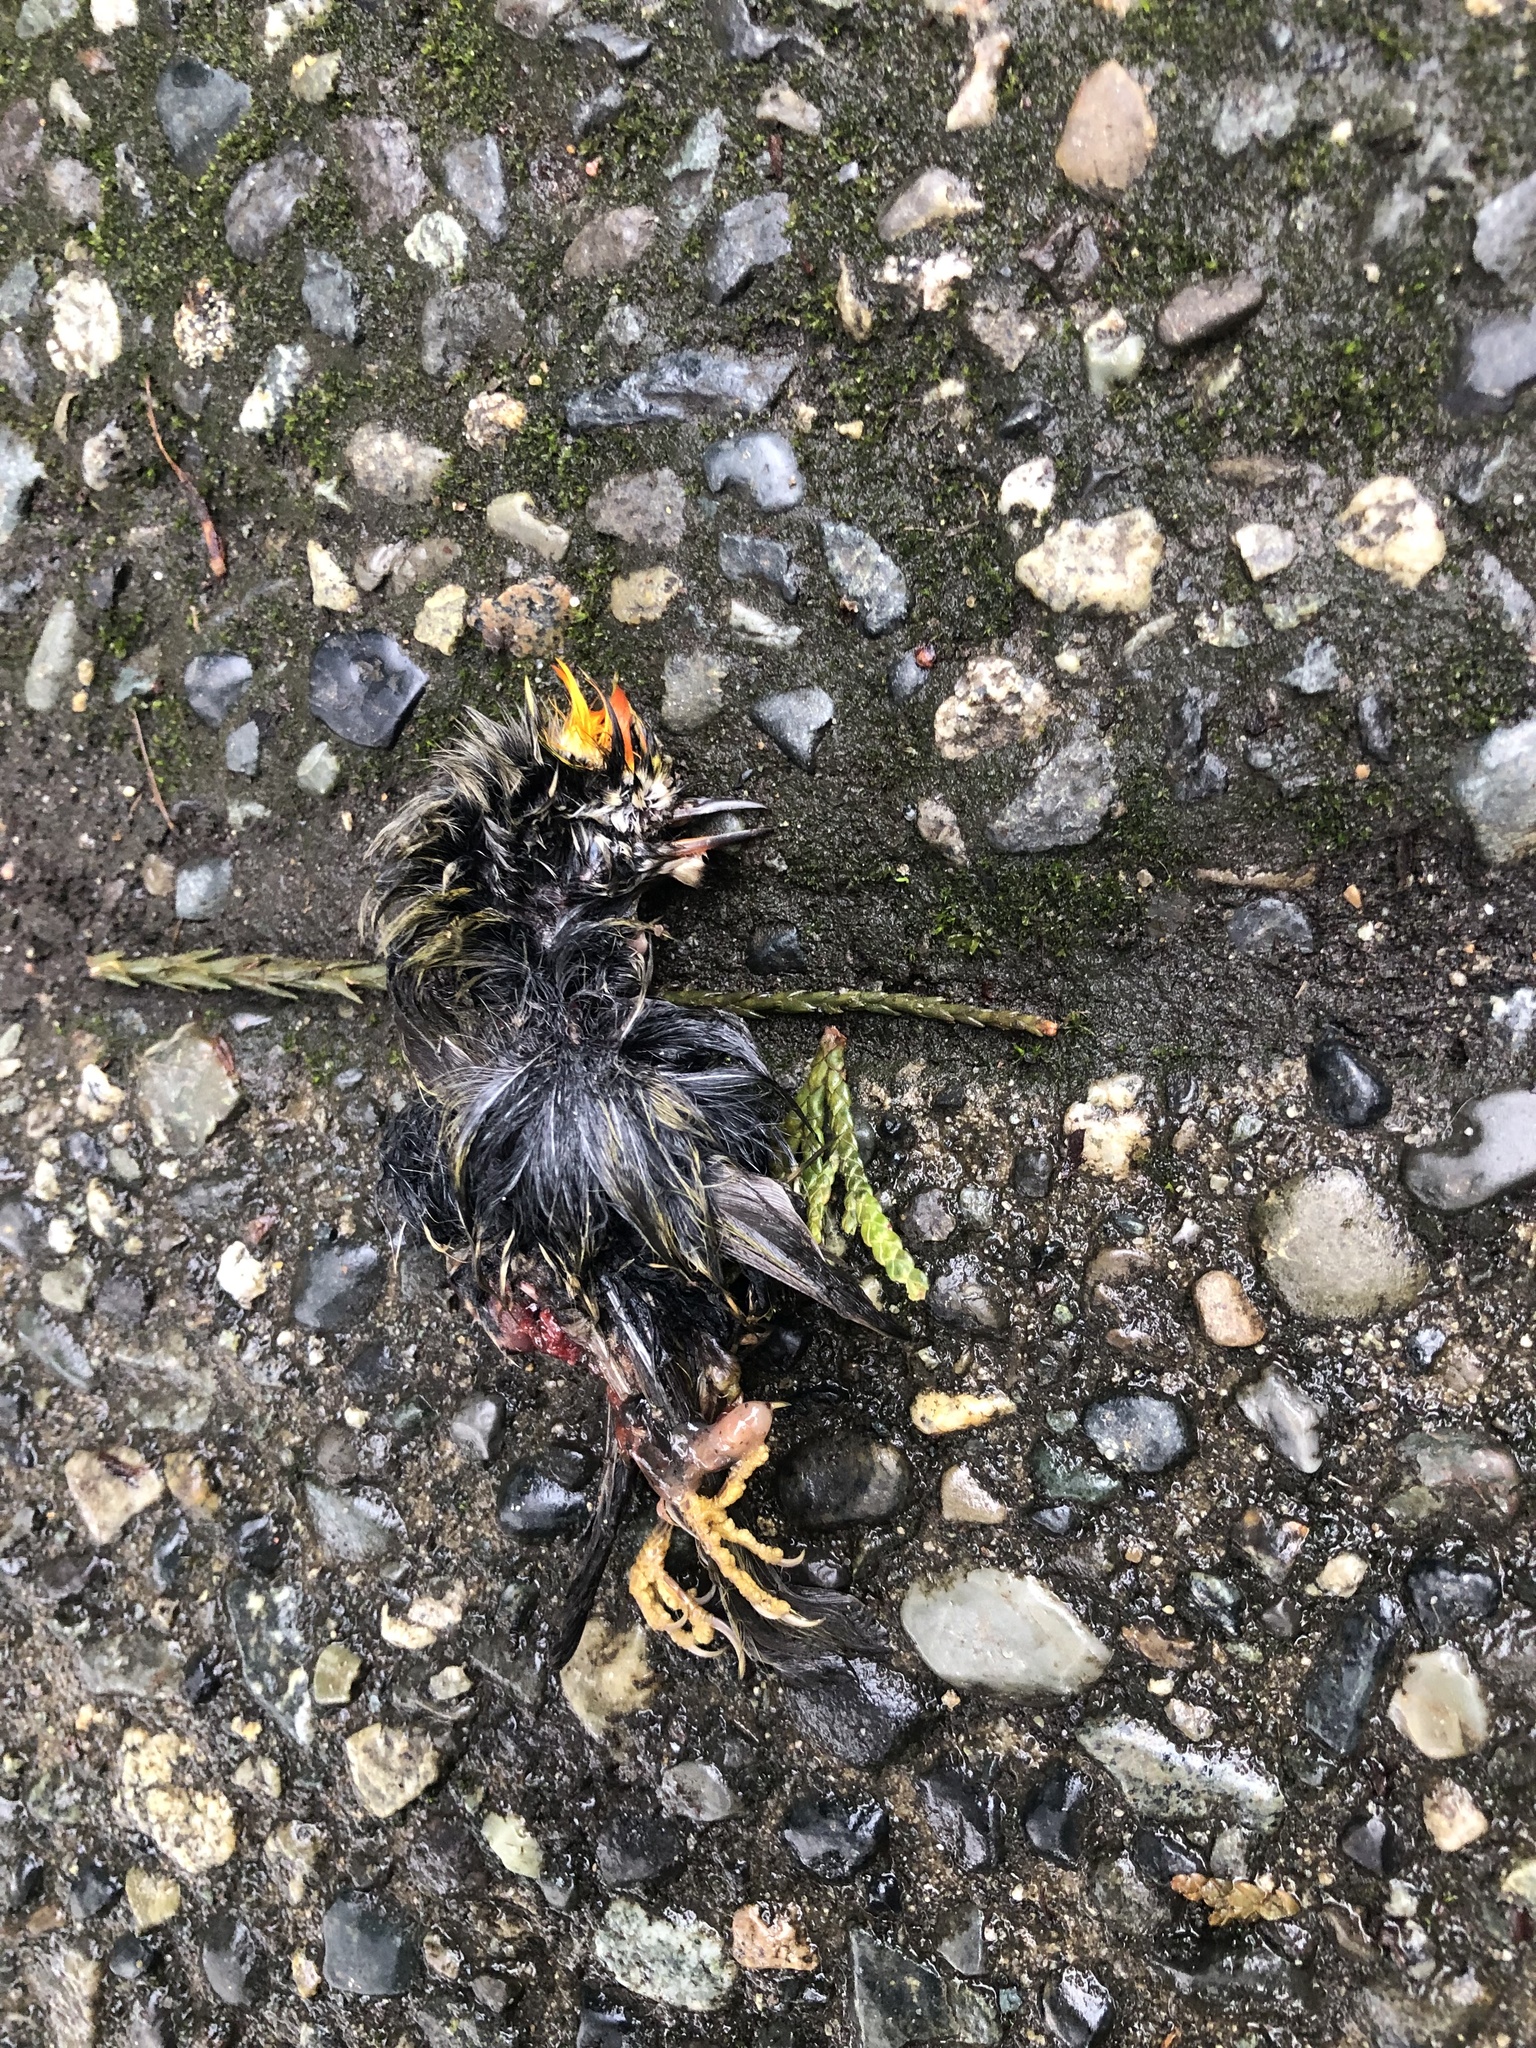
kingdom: Animalia
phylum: Chordata
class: Aves
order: Passeriformes
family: Regulidae
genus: Regulus
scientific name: Regulus satrapa
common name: Golden-crowned kinglet
